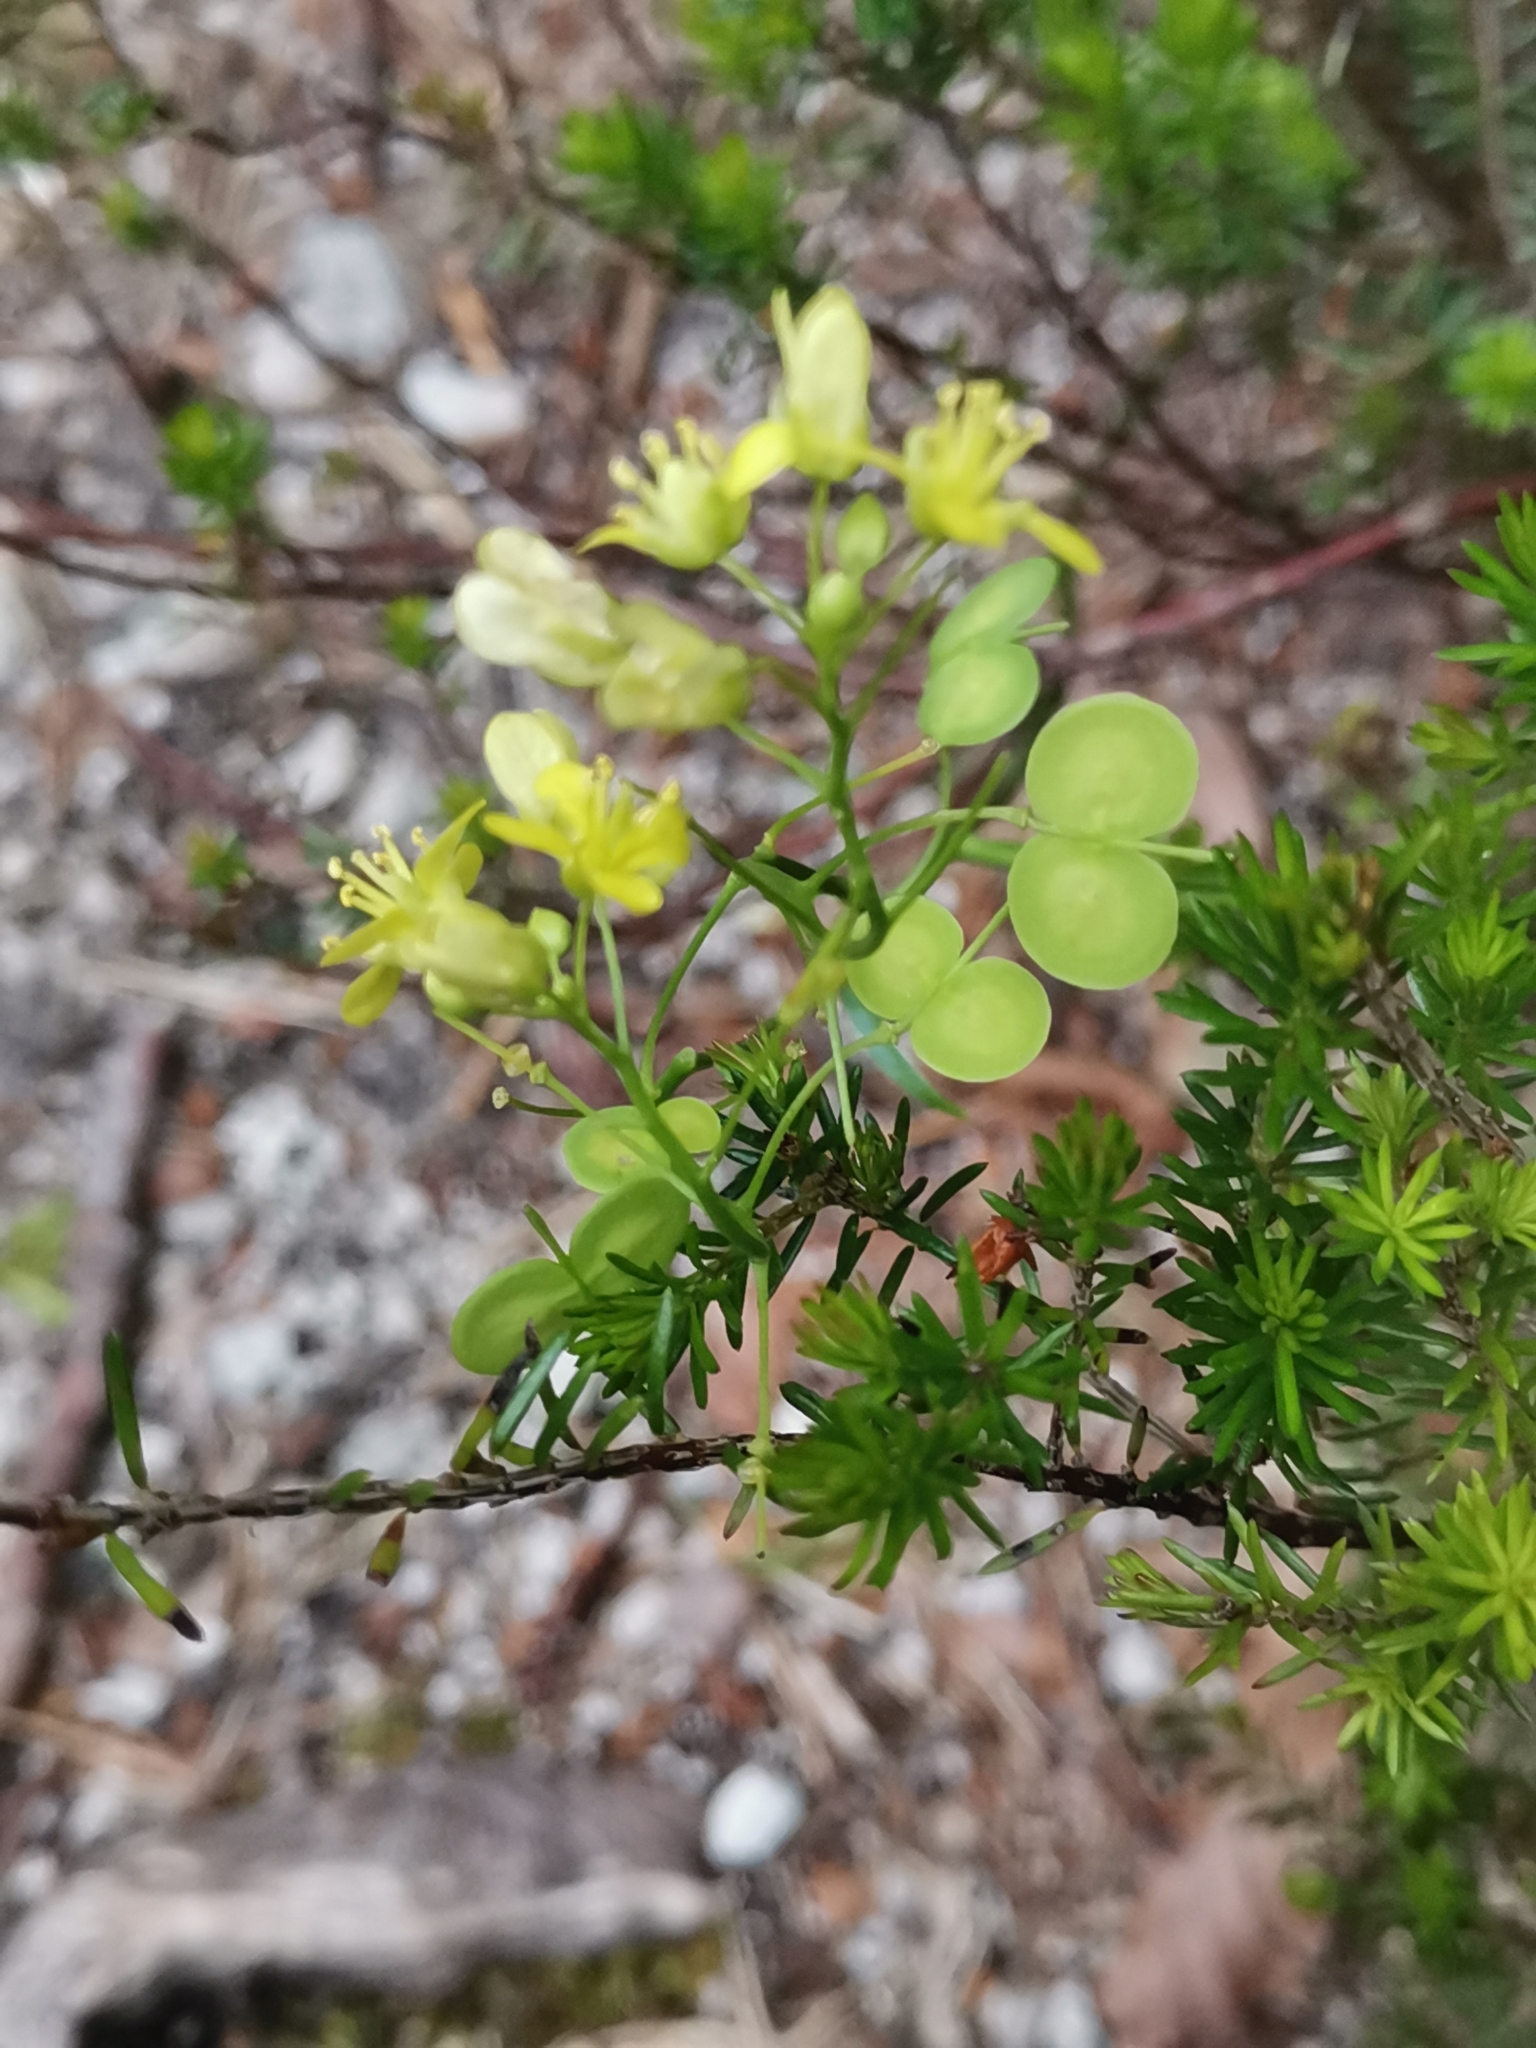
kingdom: Plantae
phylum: Tracheophyta
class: Magnoliopsida
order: Brassicales
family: Brassicaceae
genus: Biscutella
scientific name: Biscutella laevigata
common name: Buckler mustard
